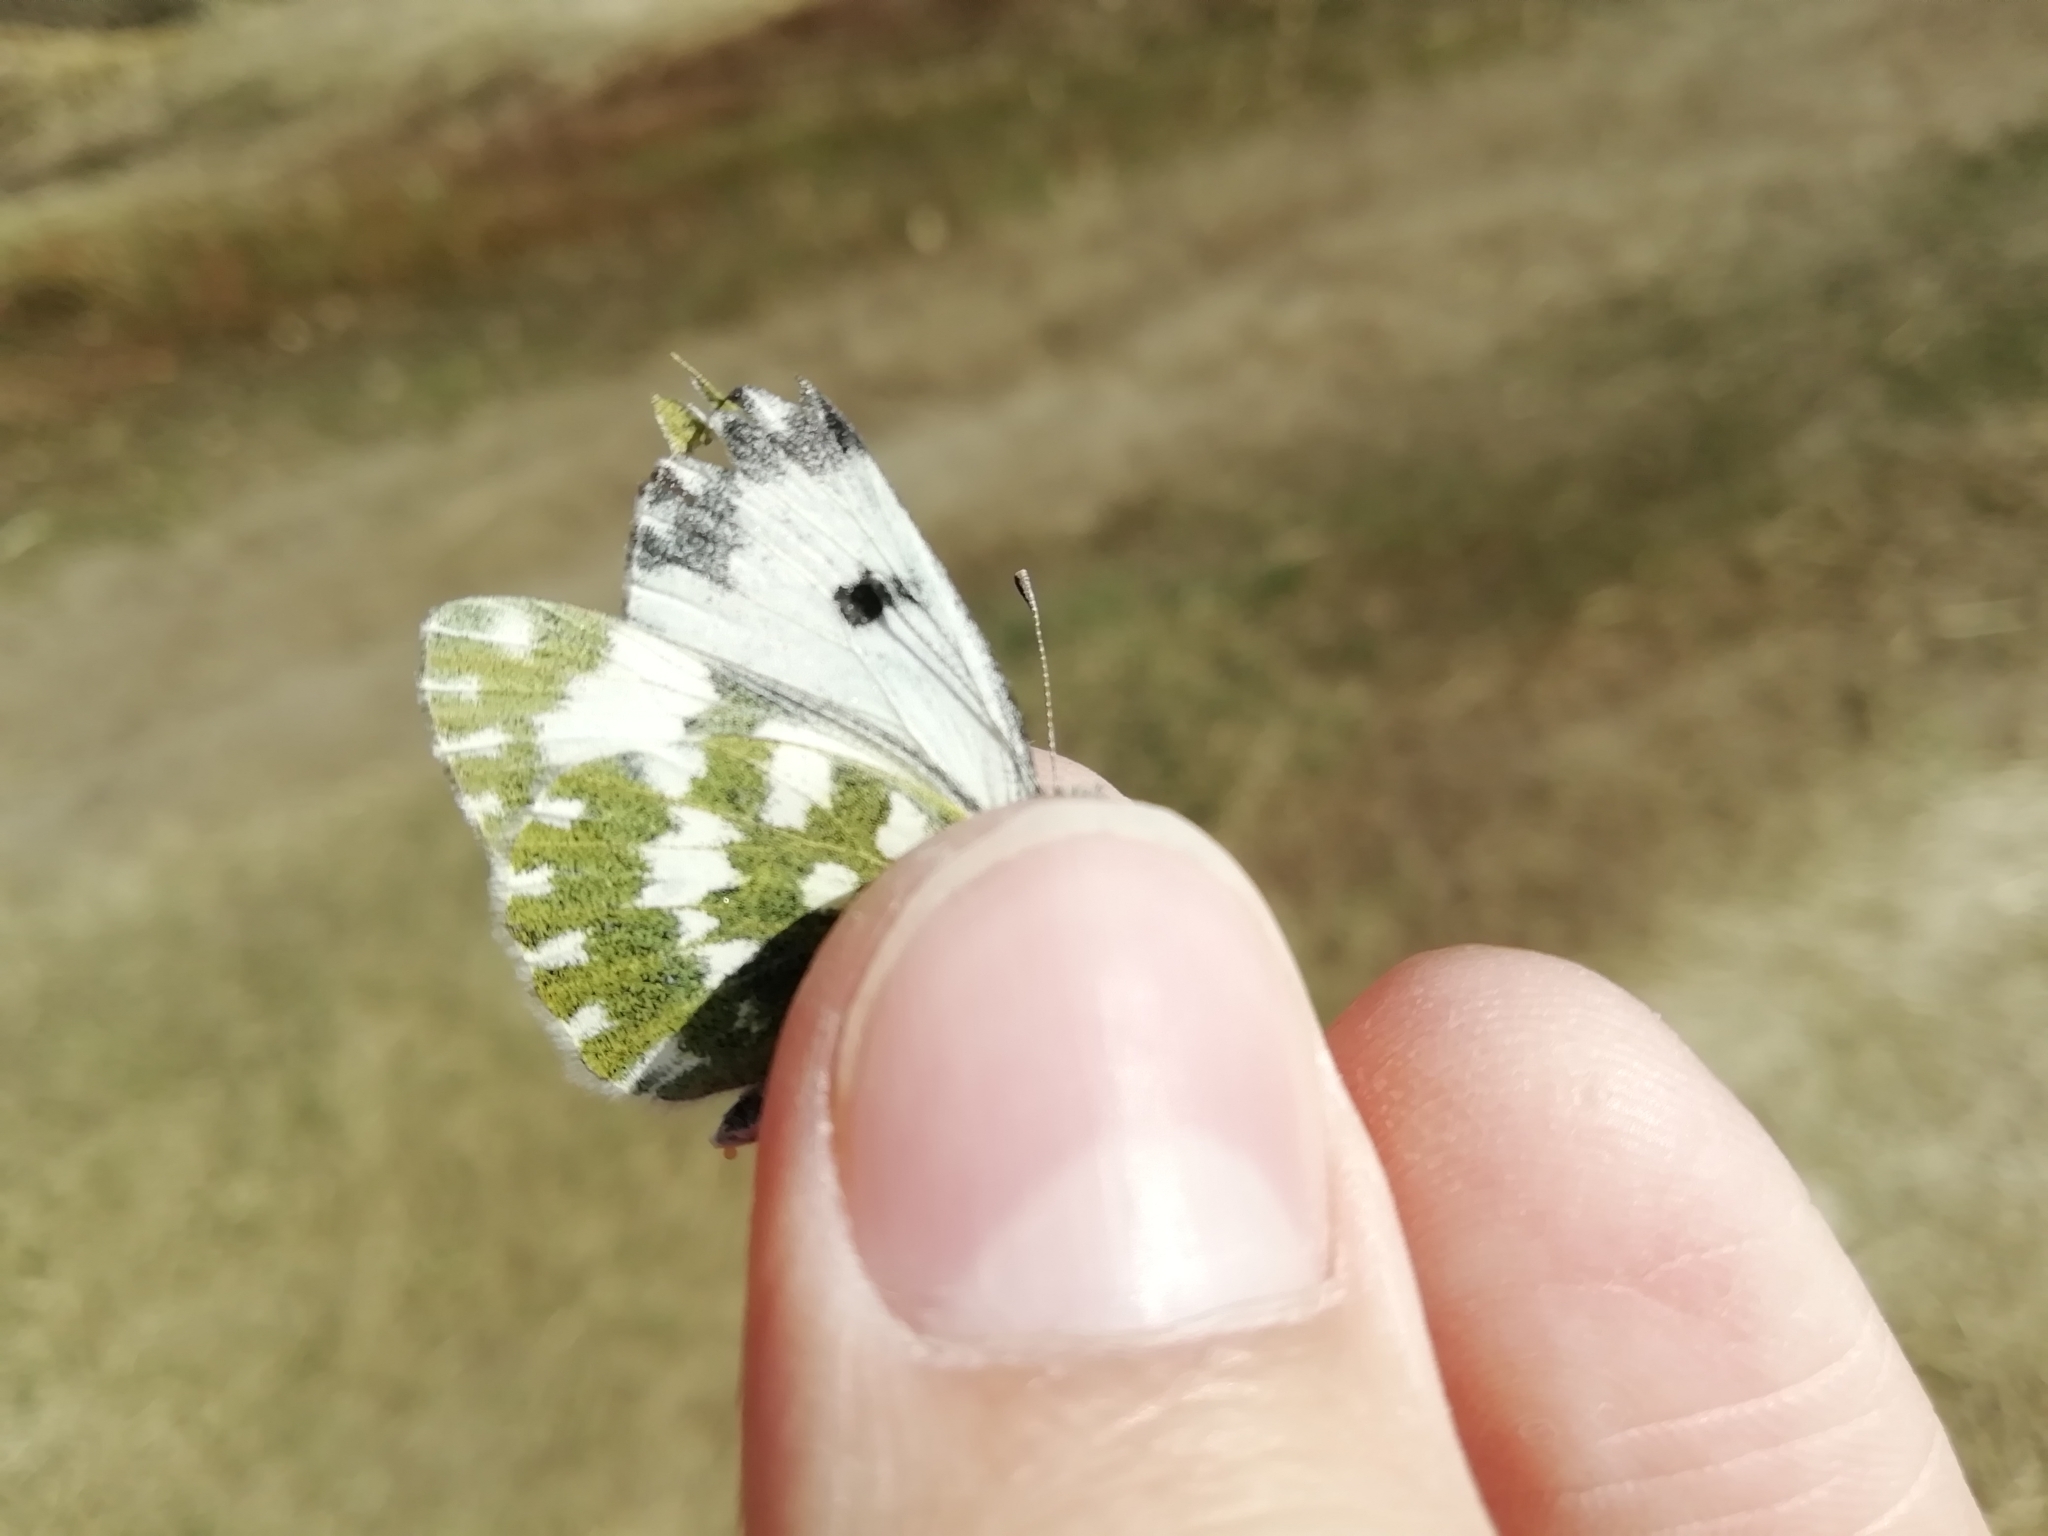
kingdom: Animalia
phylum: Arthropoda
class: Insecta
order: Lepidoptera
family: Pieridae
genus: Pontia
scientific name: Pontia edusa
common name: Eastern bath white
